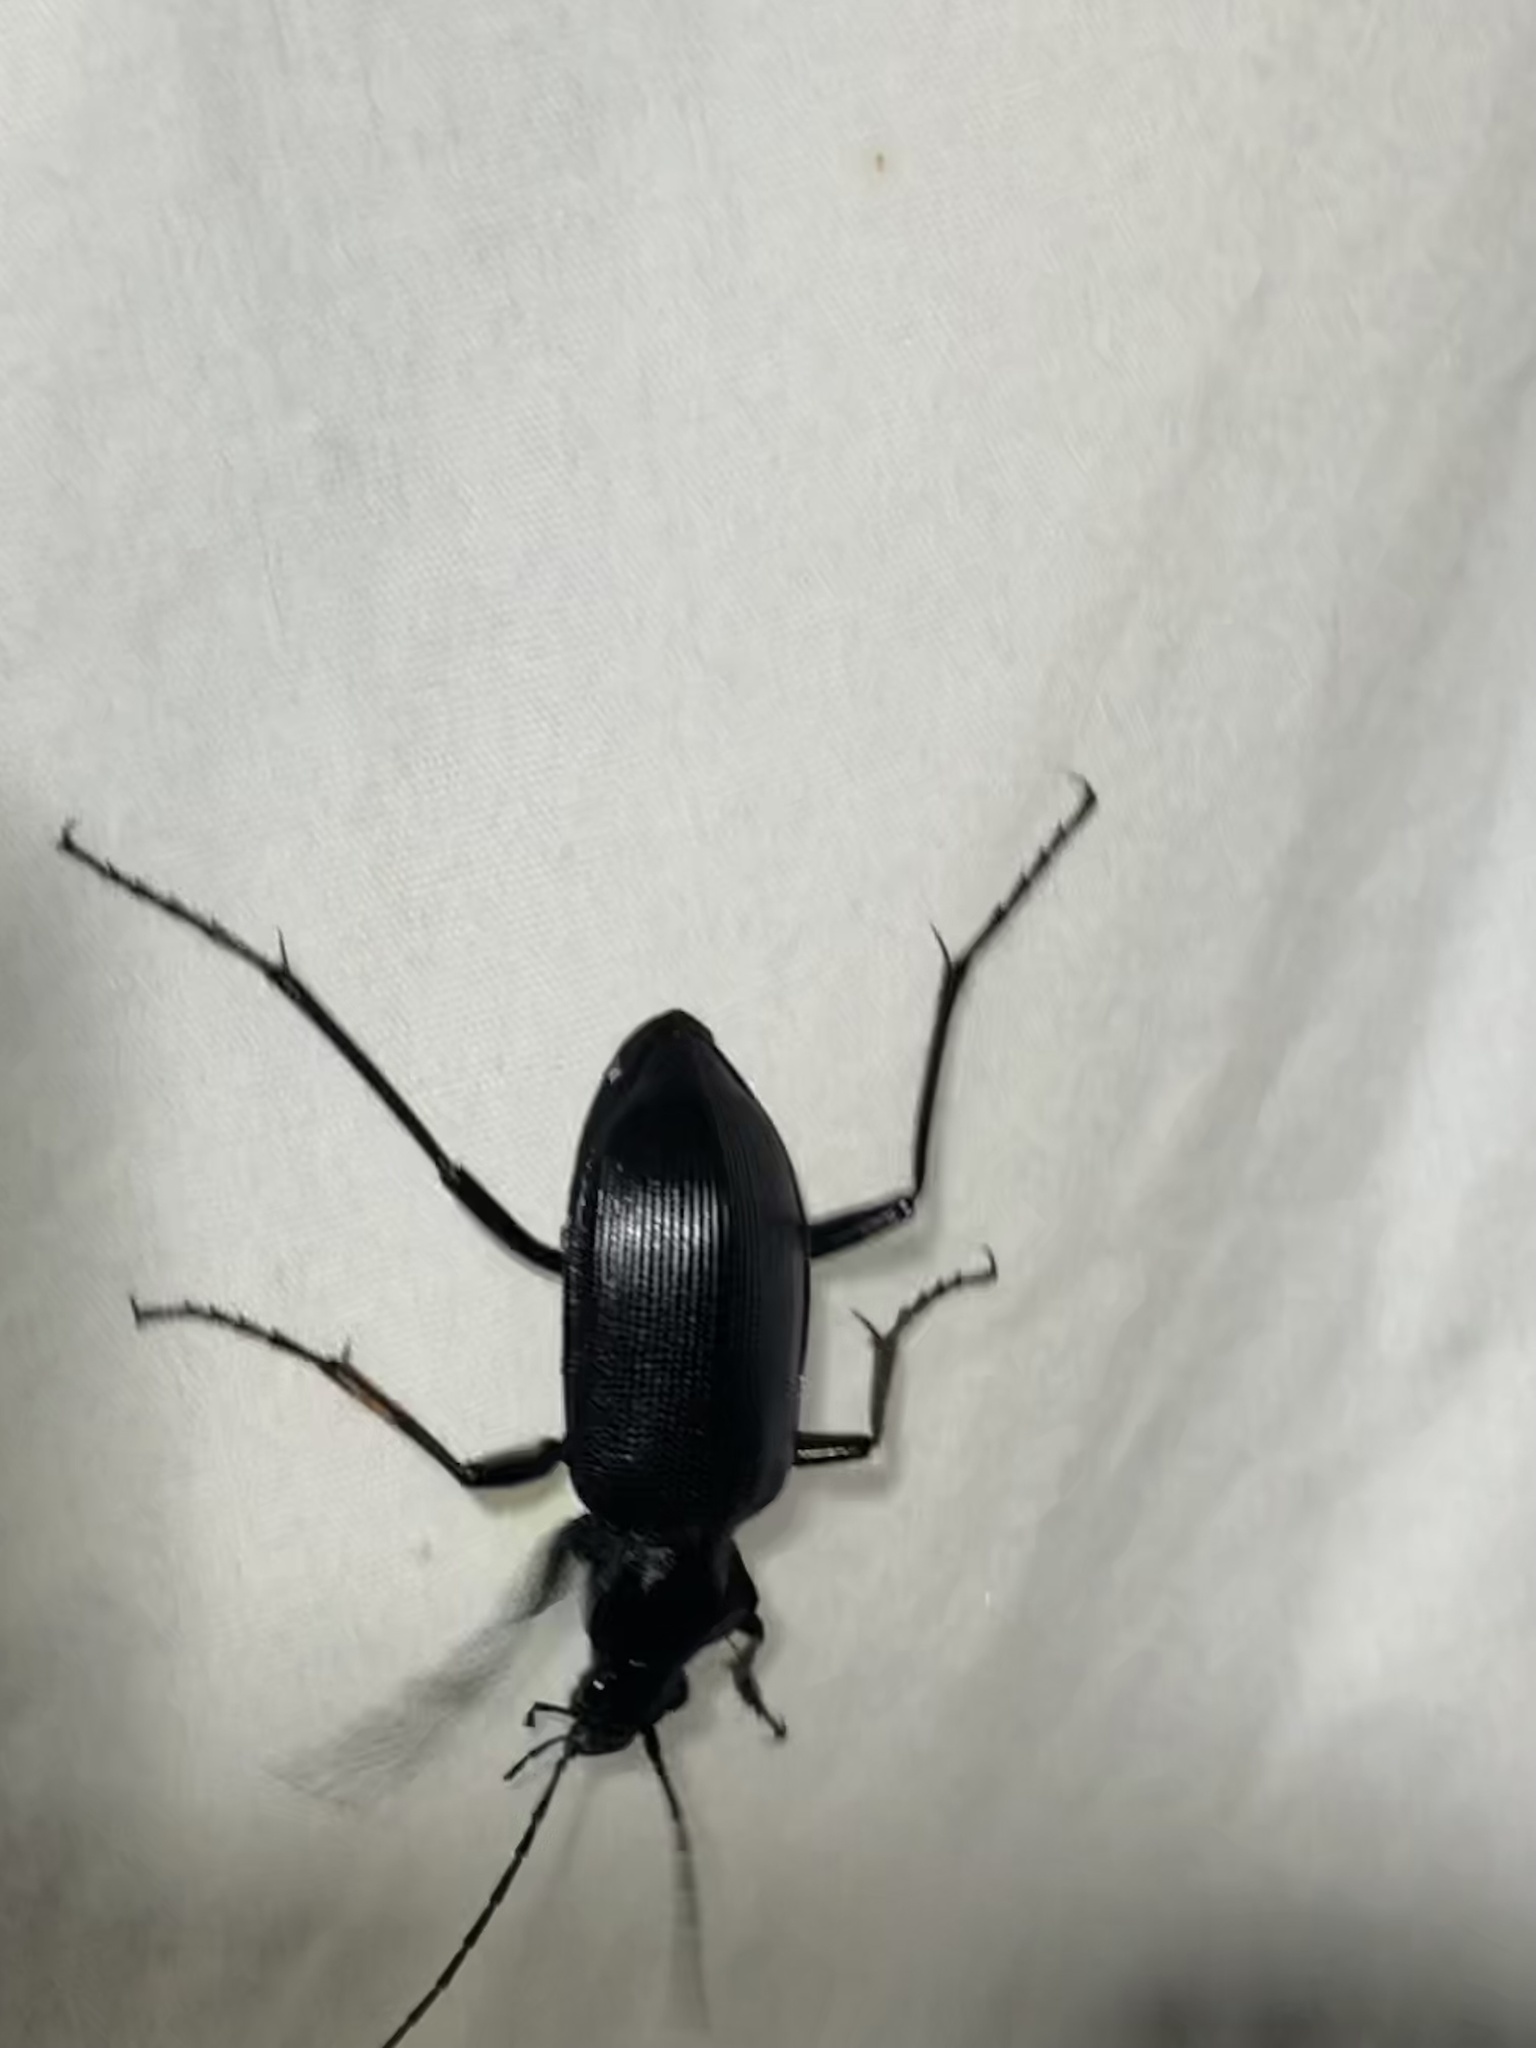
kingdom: Animalia
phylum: Arthropoda
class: Insecta
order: Coleoptera
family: Carabidae
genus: Calosoma
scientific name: Calosoma angulatum
